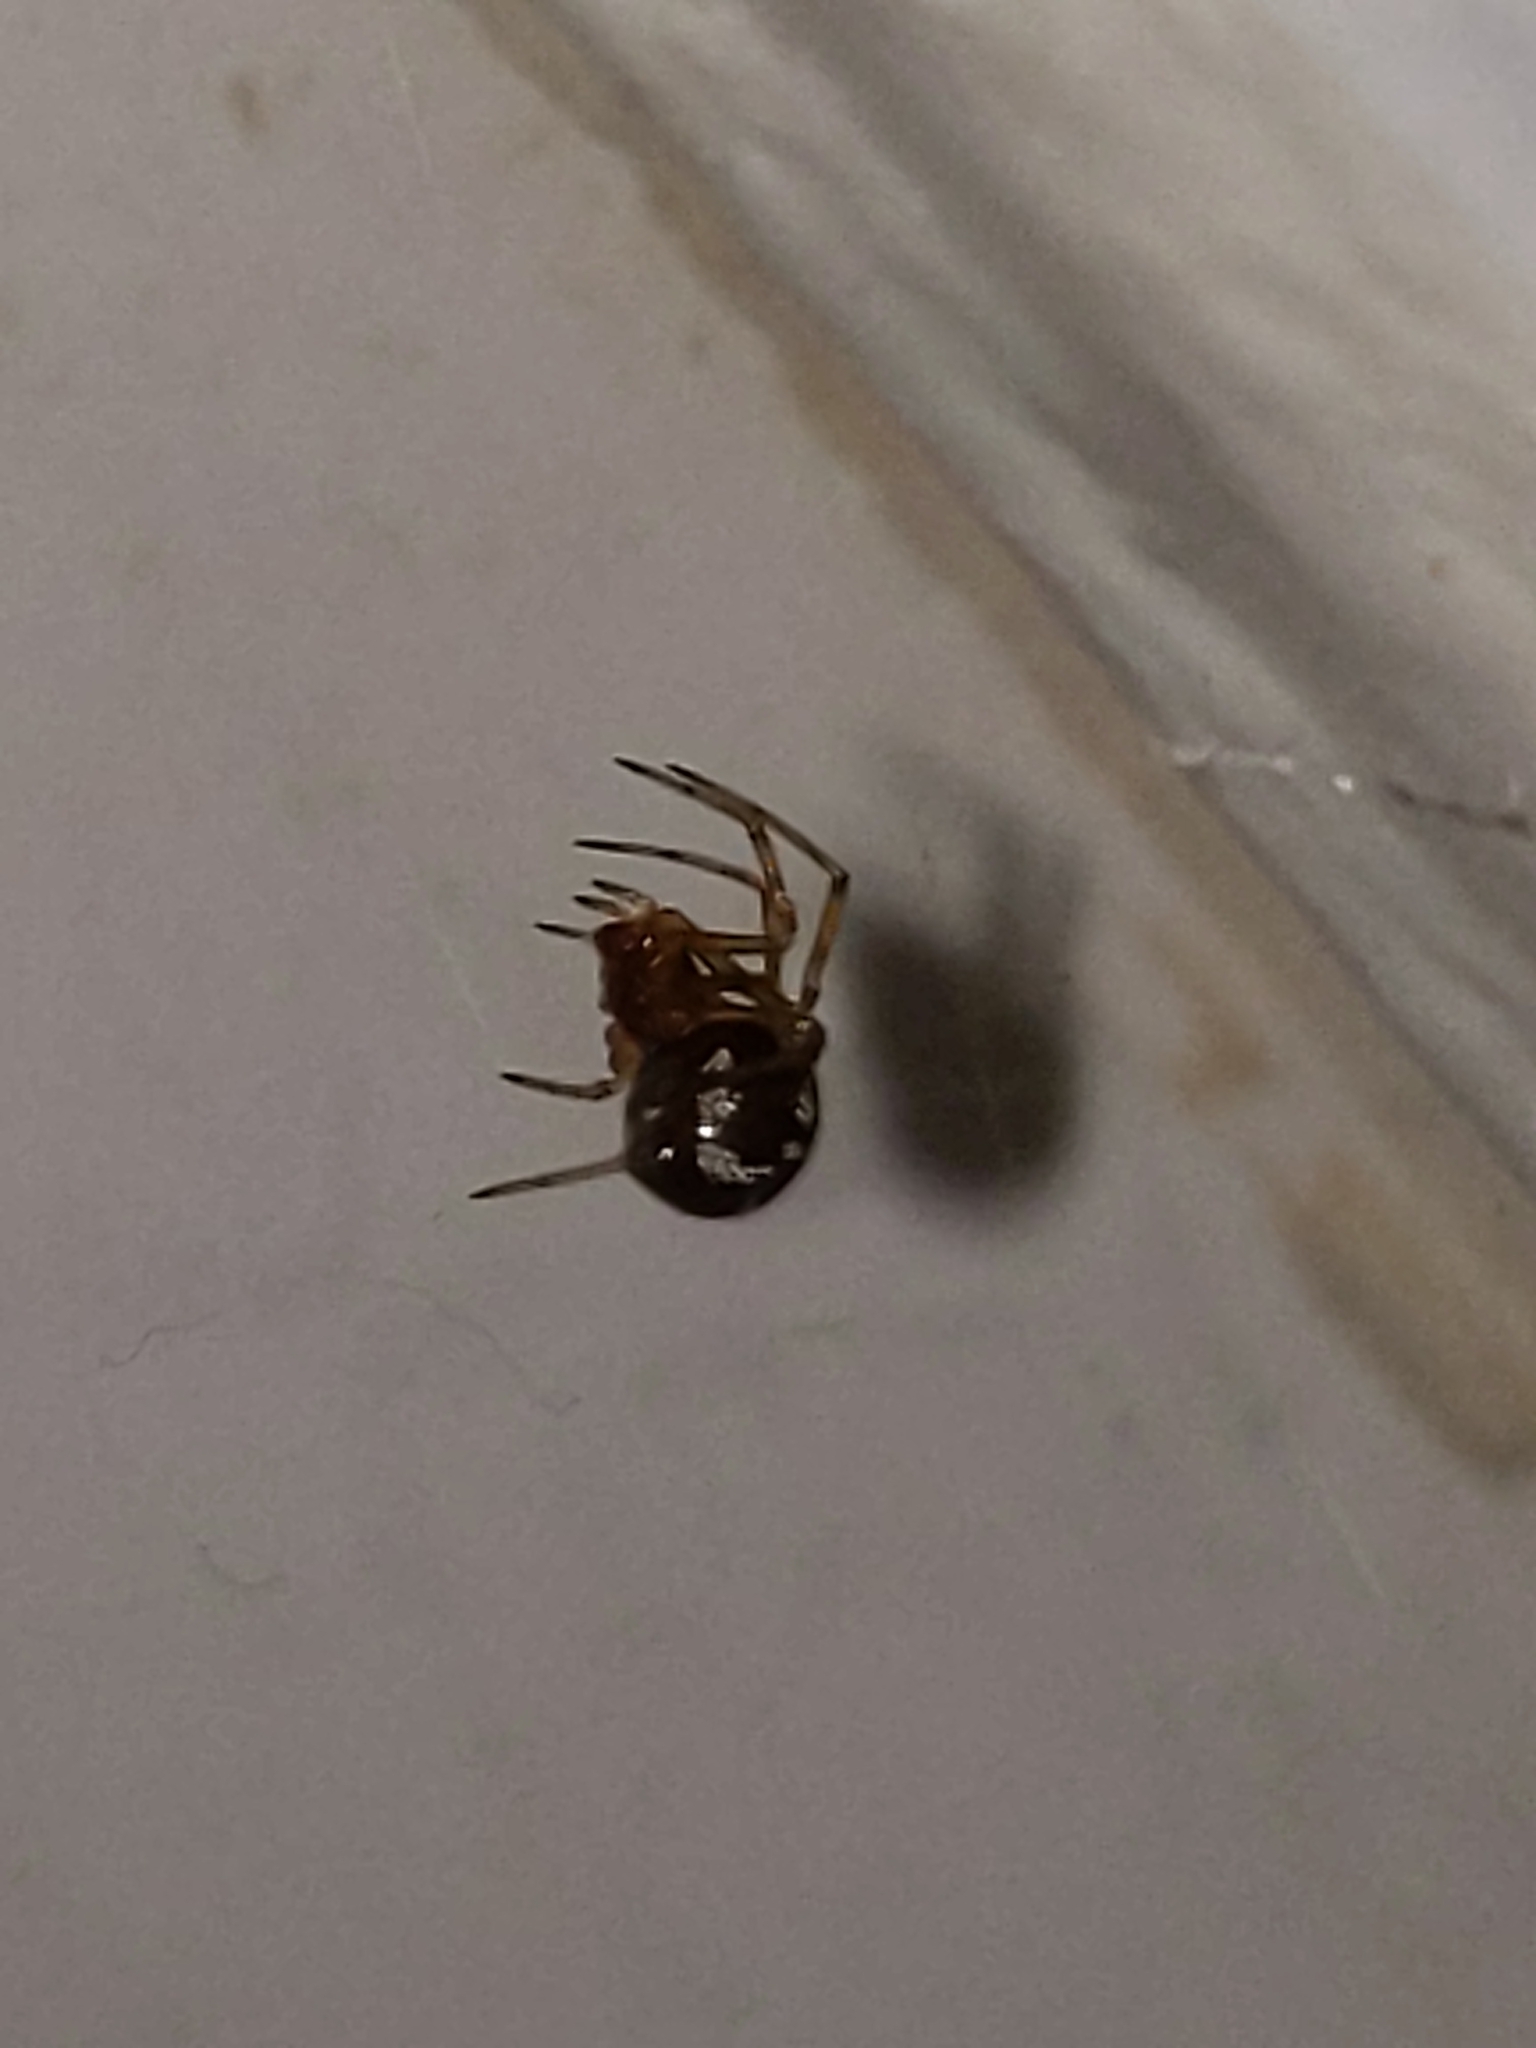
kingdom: Animalia
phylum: Arthropoda
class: Arachnida
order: Araneae
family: Theridiidae
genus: Steatoda
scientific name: Steatoda triangulosa
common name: Triangulate bud spider
